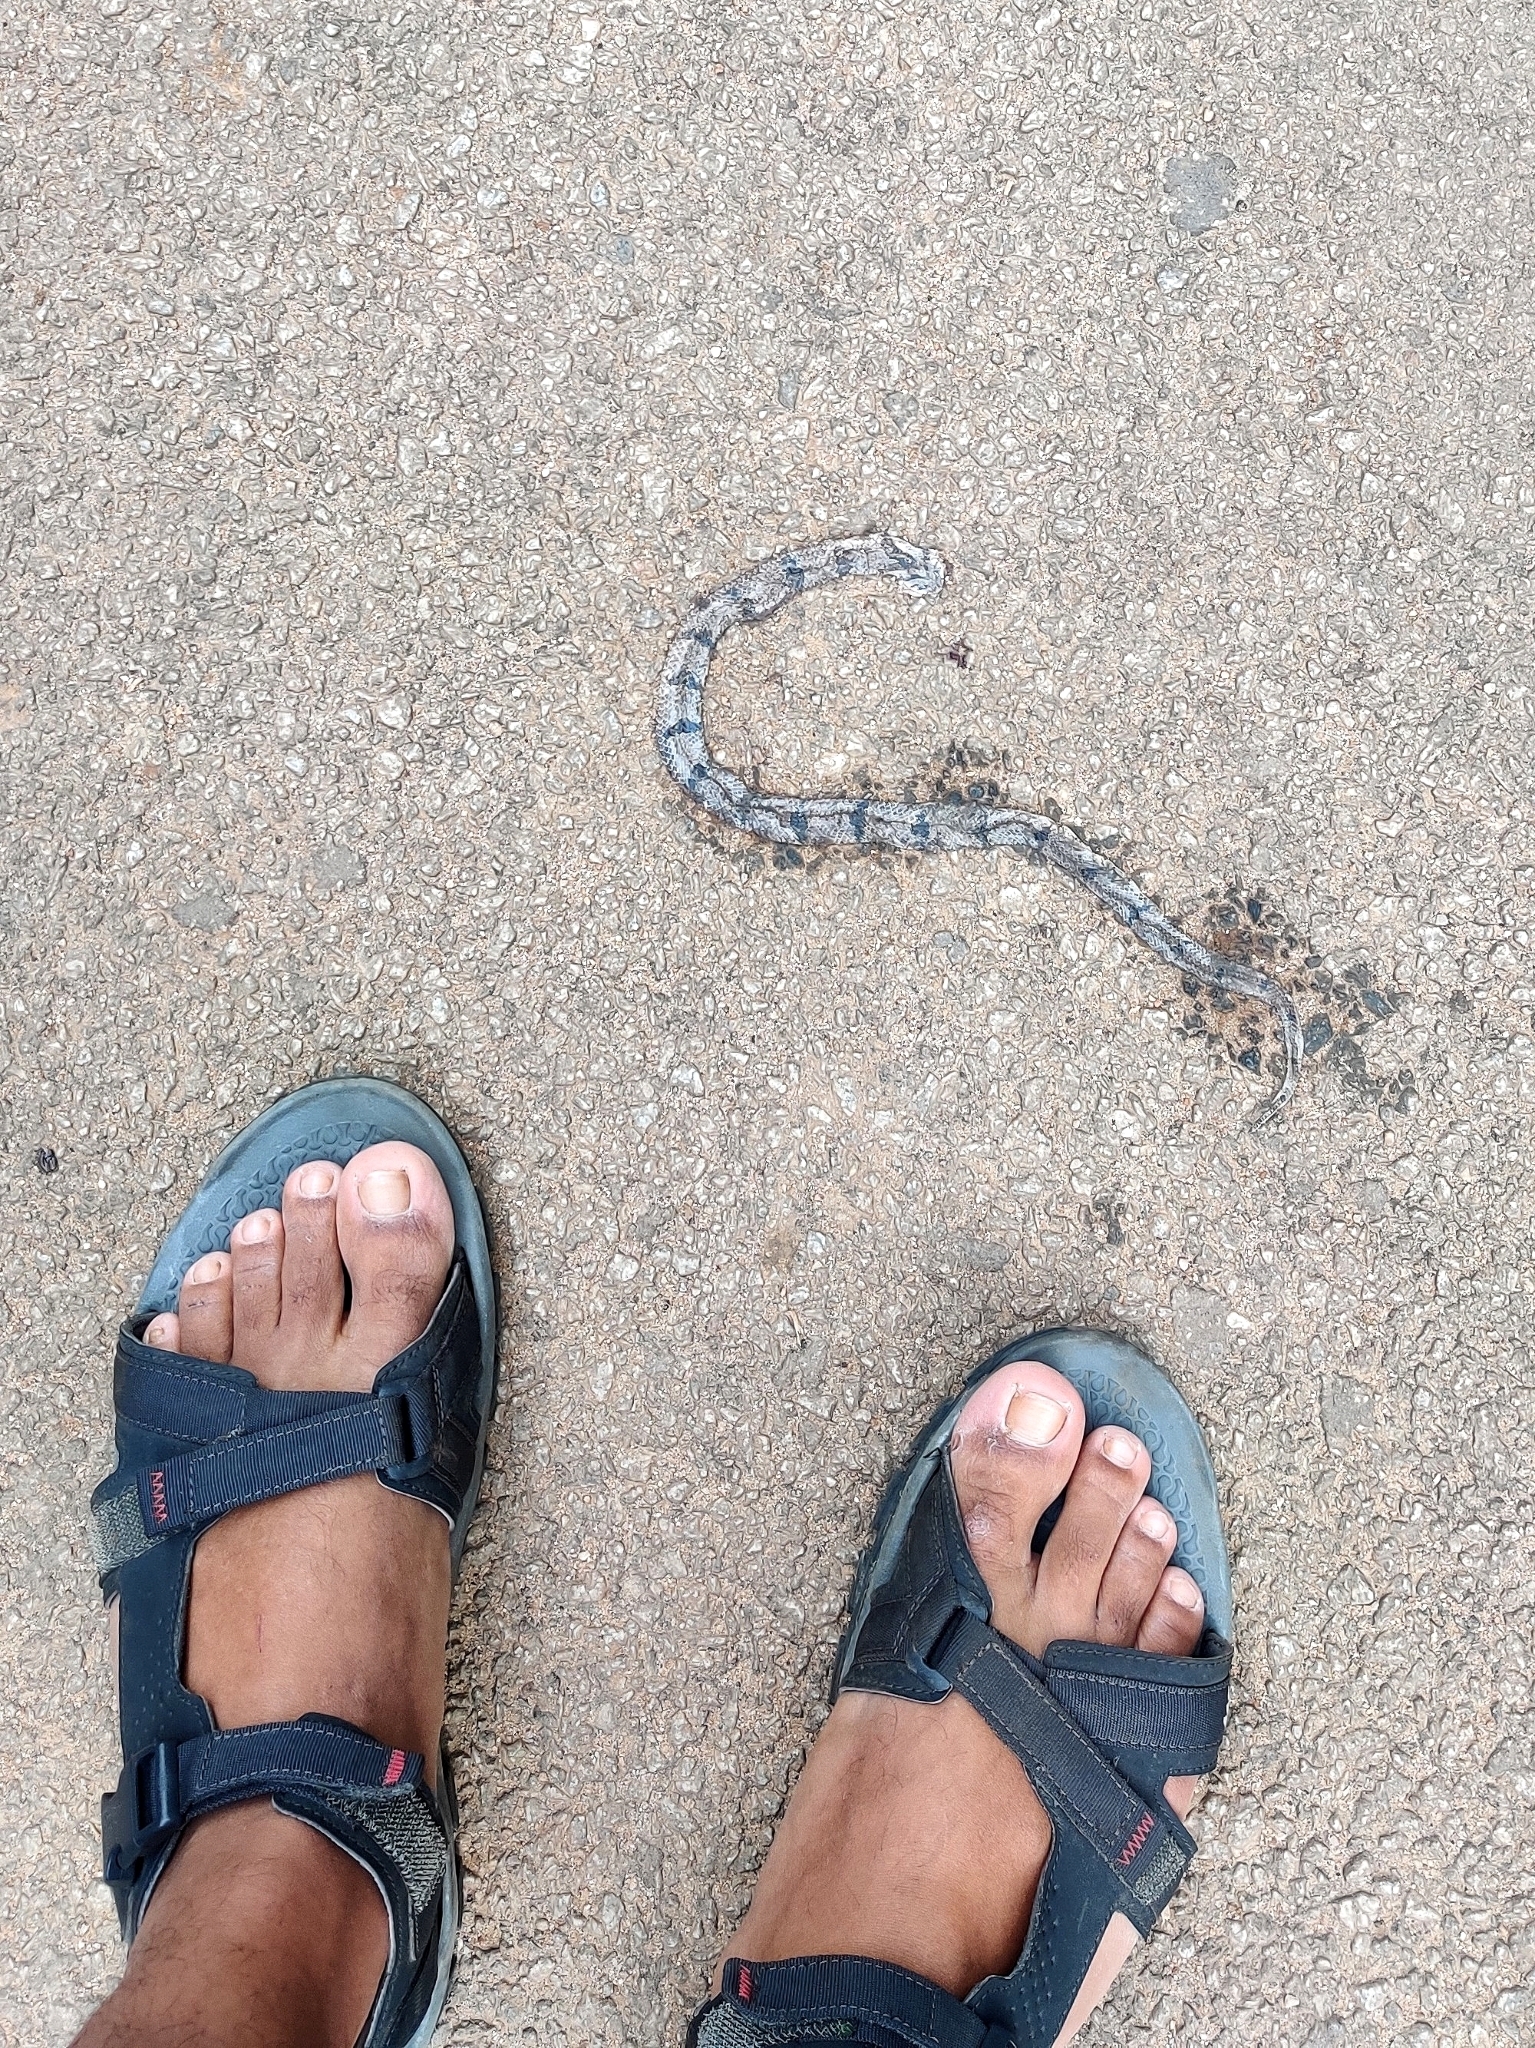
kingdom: Animalia
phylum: Chordata
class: Squamata
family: Colubridae
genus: Oligodon
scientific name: Oligodon arnensis
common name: Banded kukri
